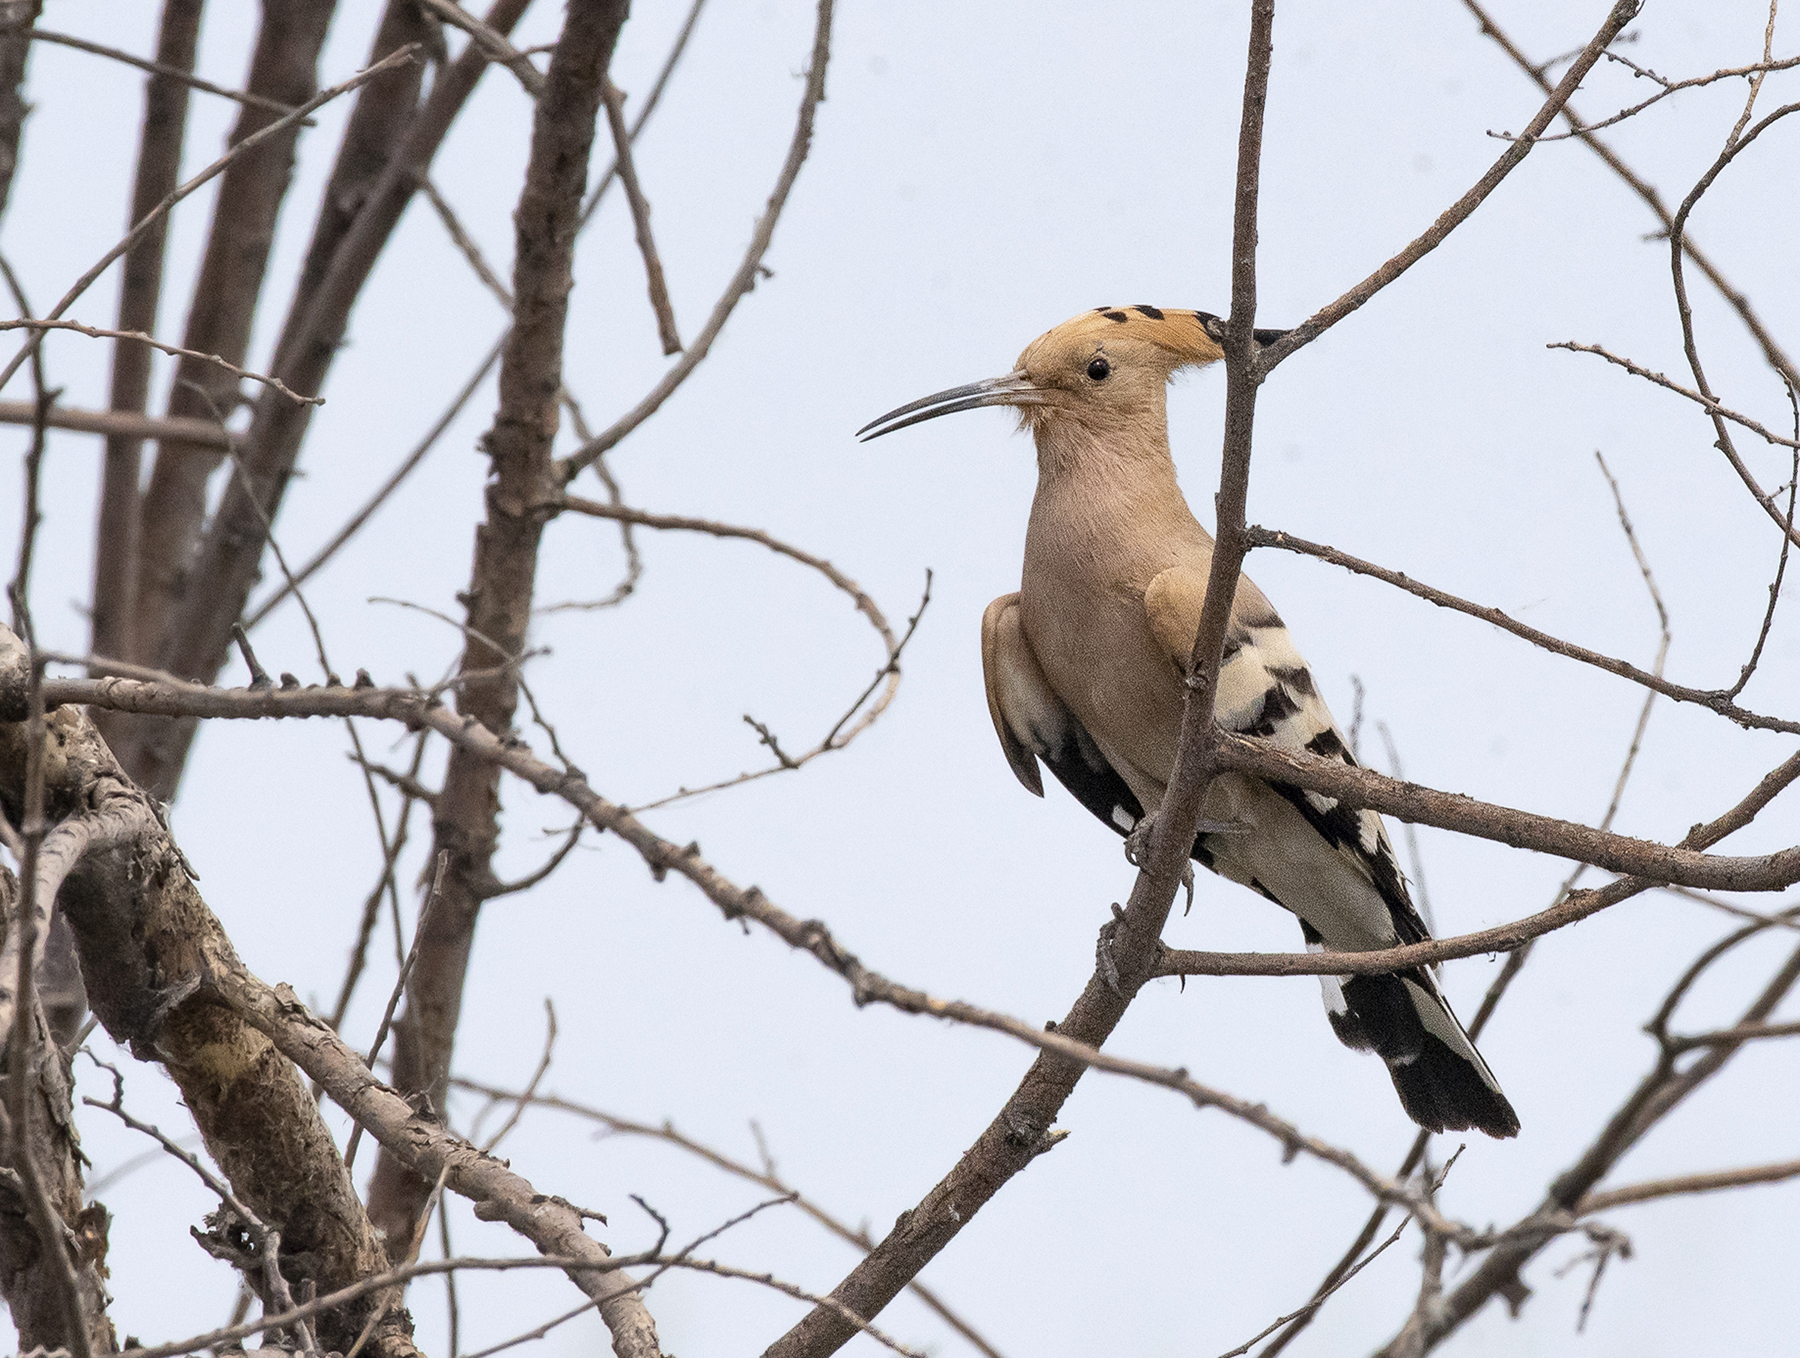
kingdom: Animalia
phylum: Chordata
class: Aves
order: Bucerotiformes
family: Upupidae
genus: Upupa
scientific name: Upupa epops
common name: Eurasian hoopoe
